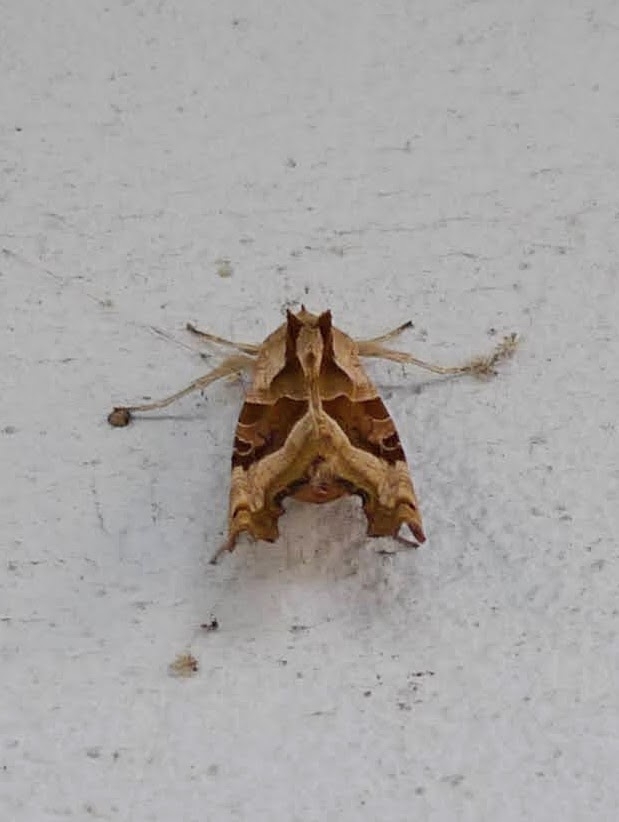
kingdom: Animalia
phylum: Arthropoda
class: Insecta
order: Lepidoptera
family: Noctuidae
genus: Phlogophora
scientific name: Phlogophora meticulosa
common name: Angle shades
